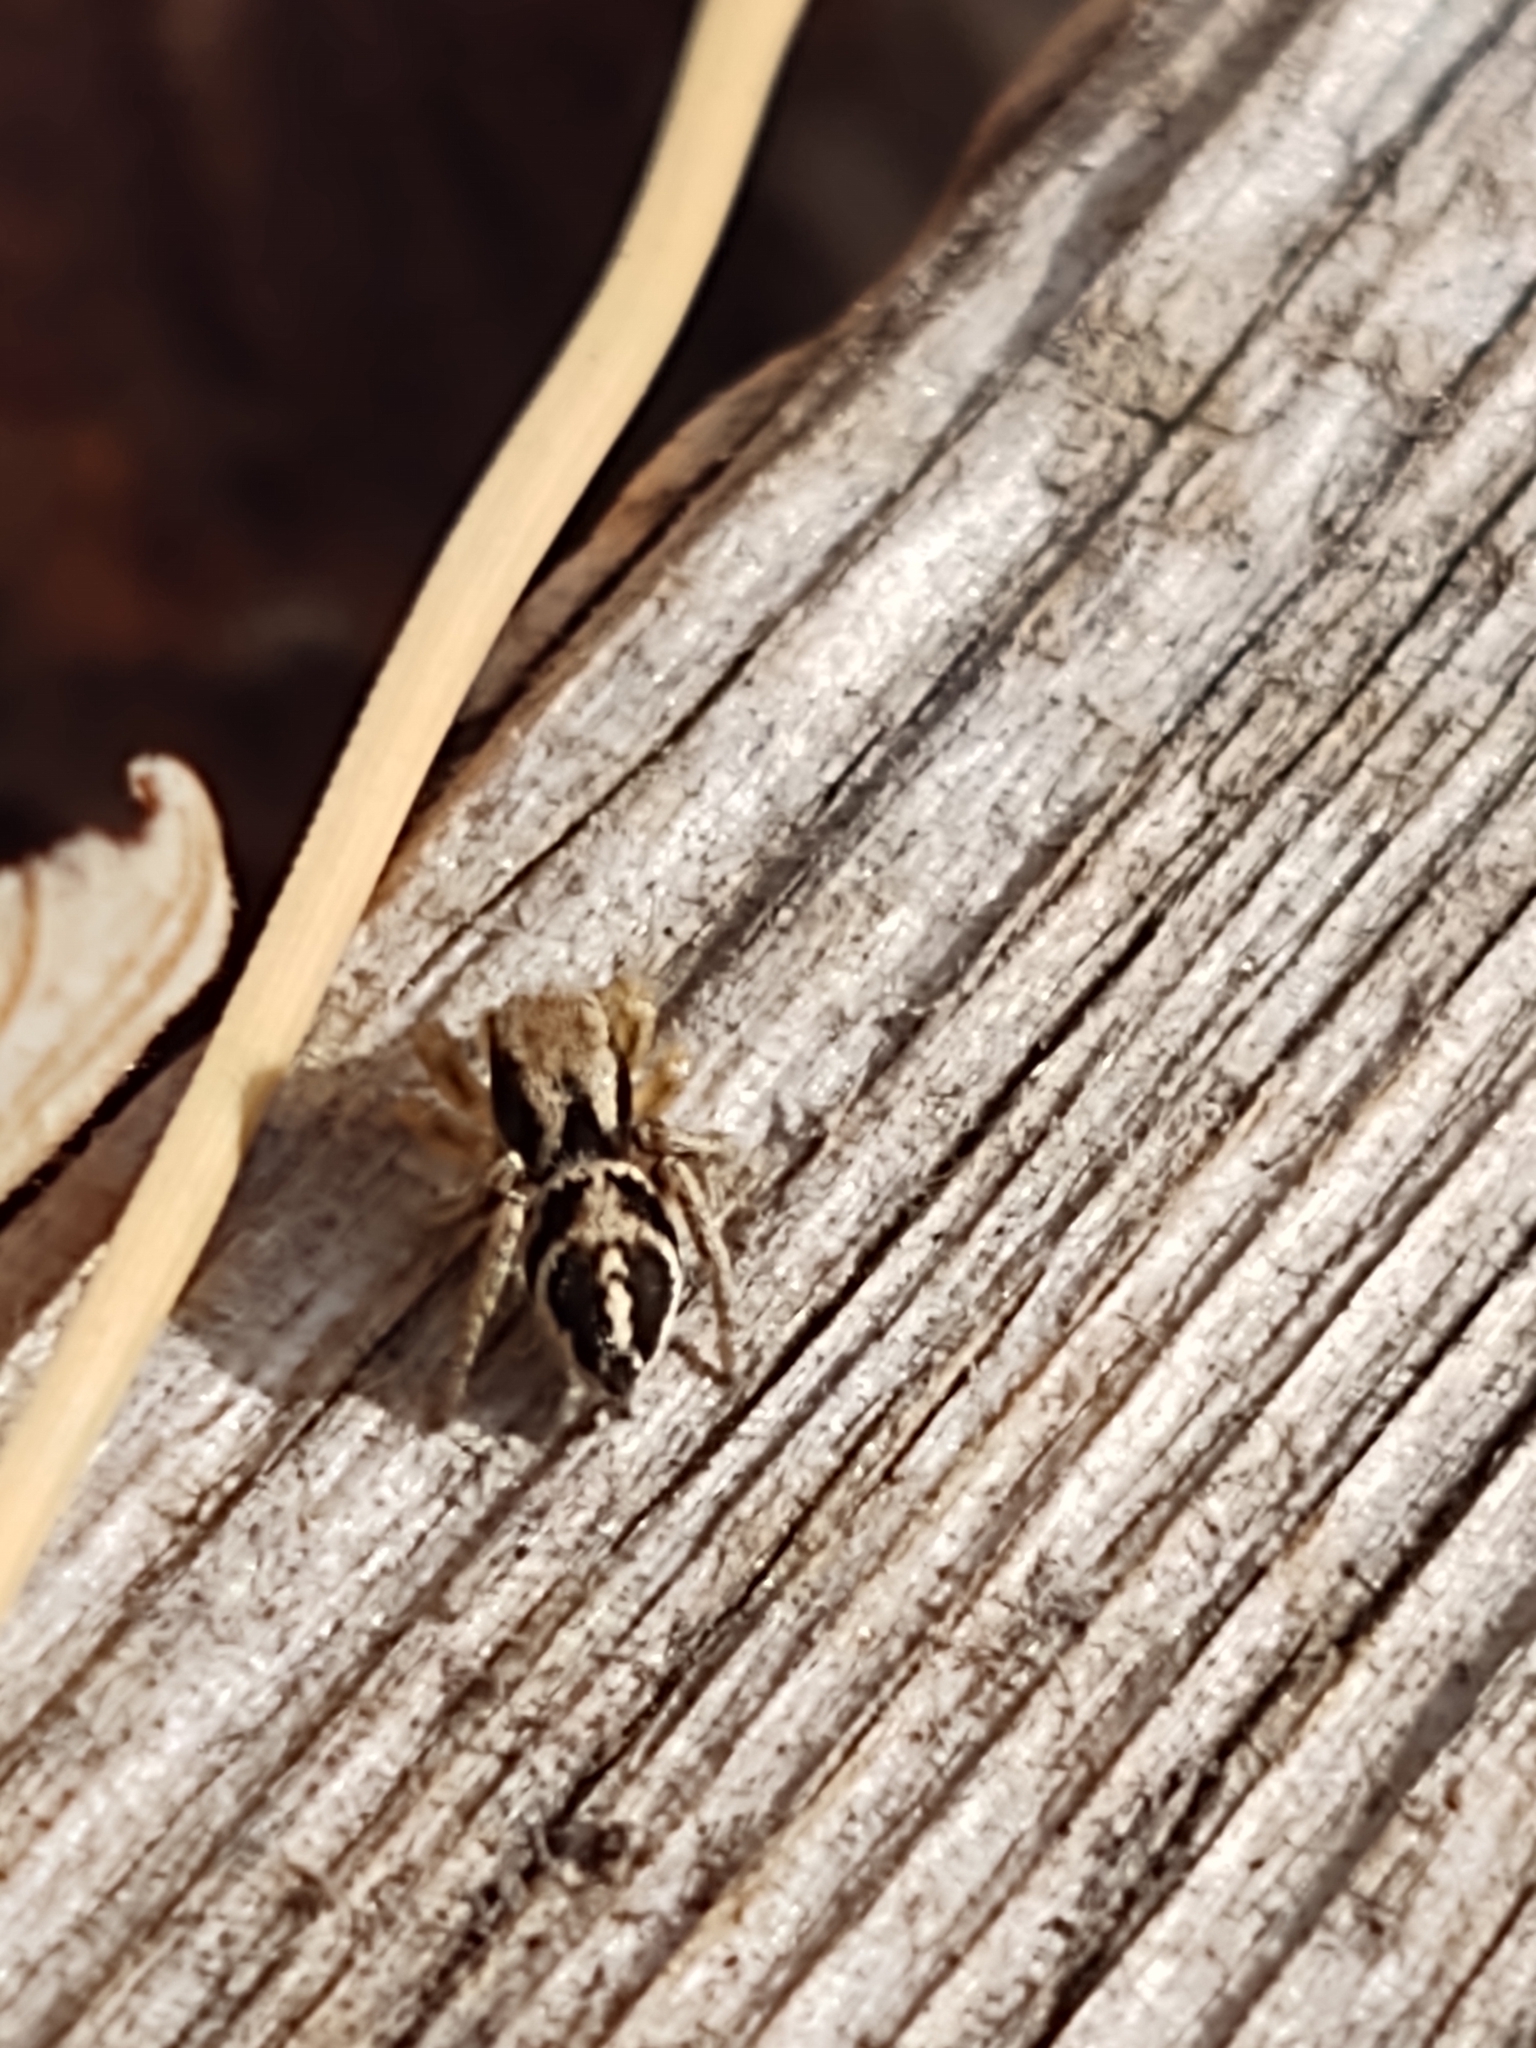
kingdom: Animalia
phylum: Arthropoda
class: Arachnida
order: Araneae
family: Salticidae
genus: Habronattus
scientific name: Habronattus festus
